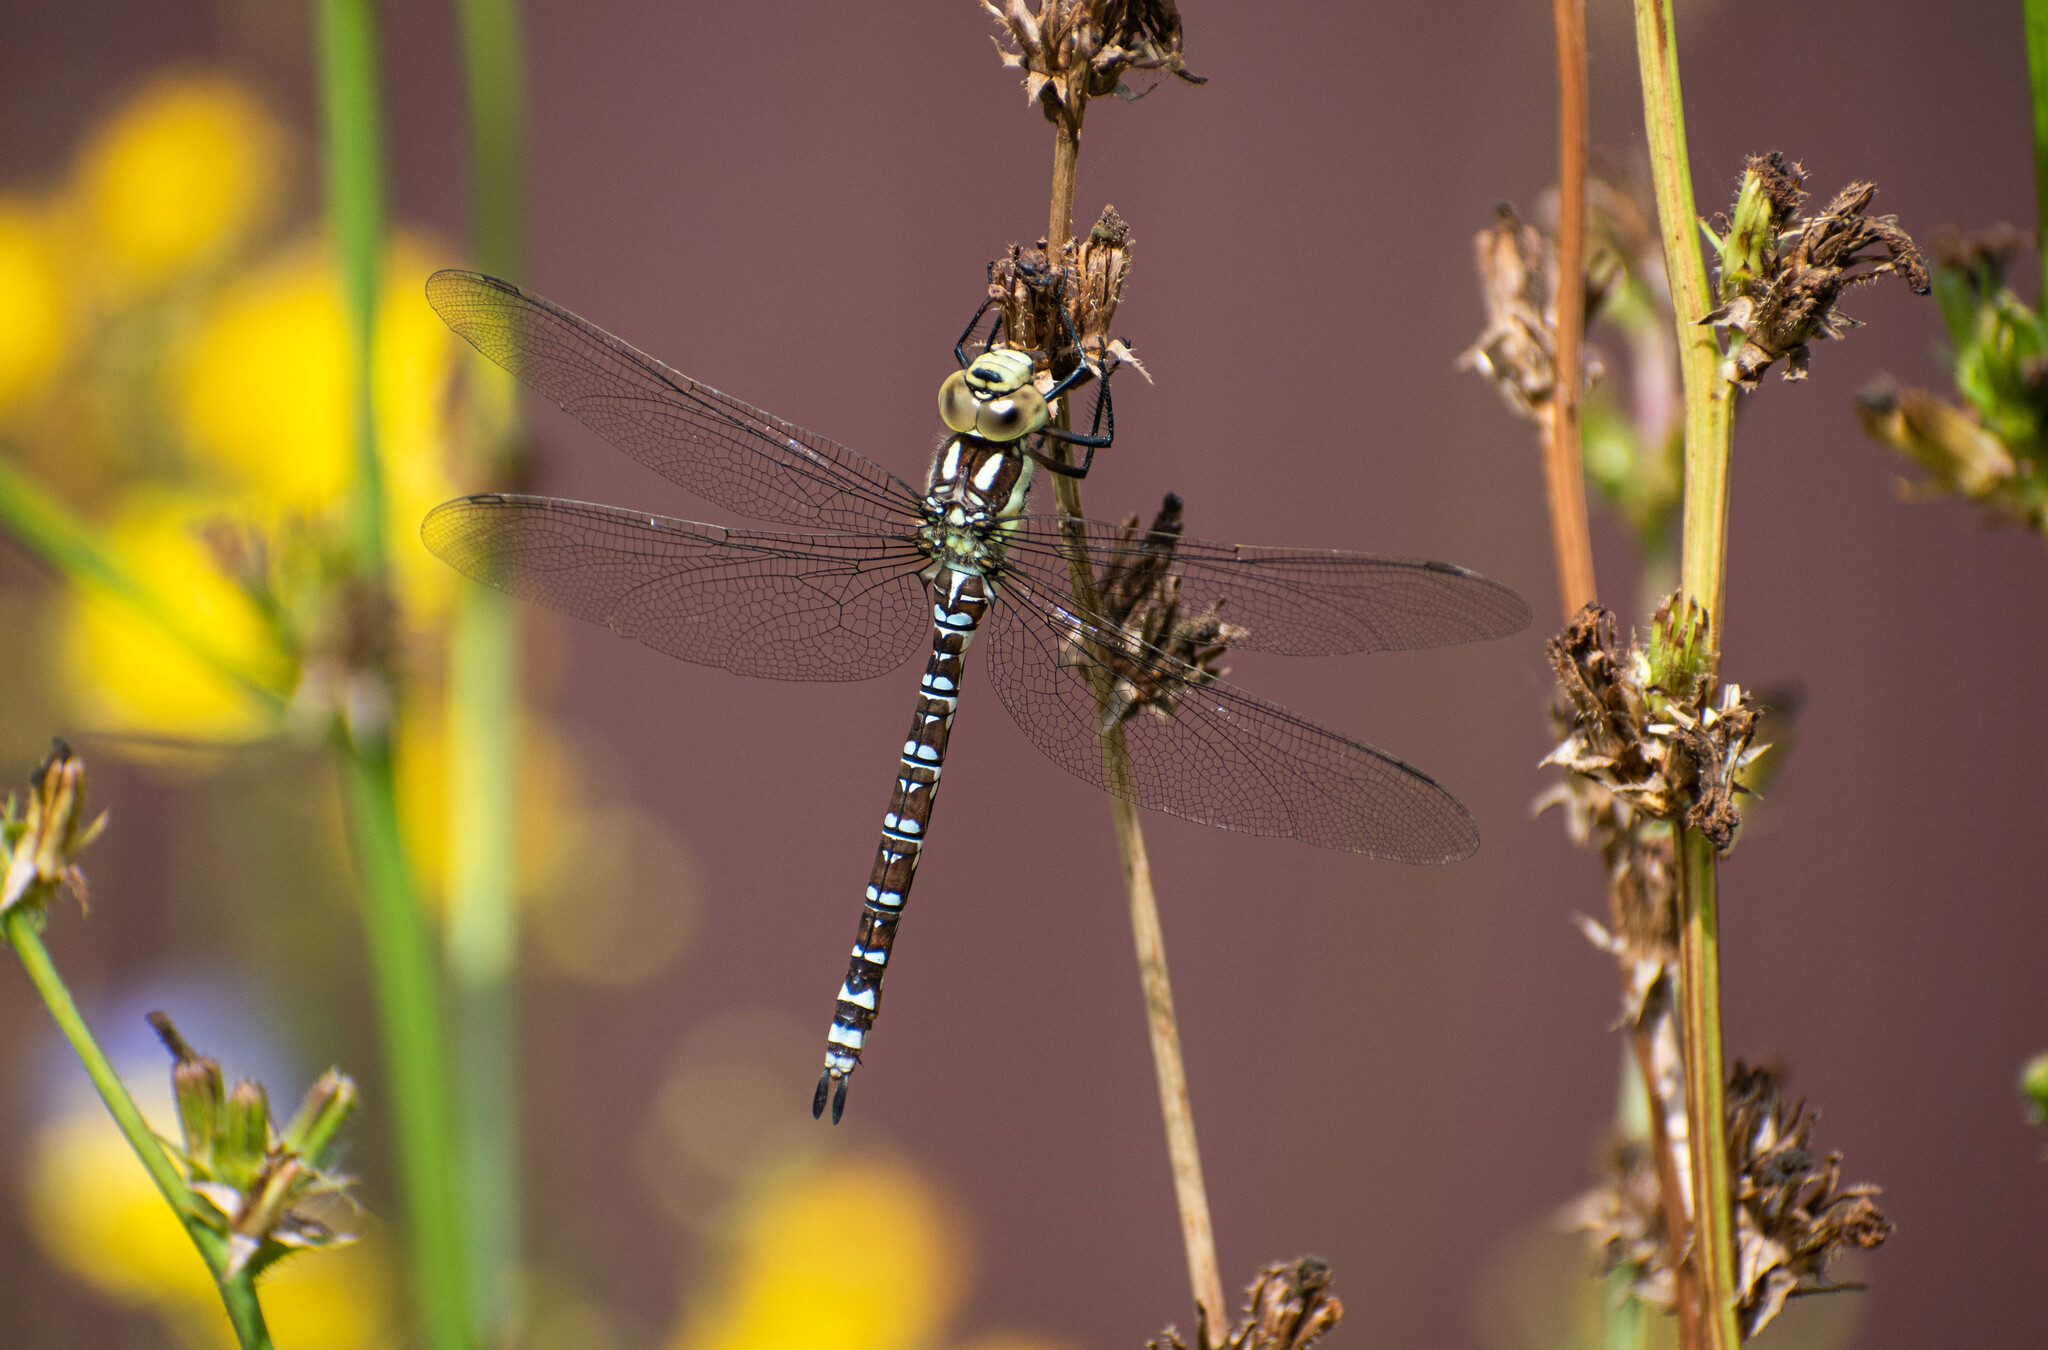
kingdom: Animalia
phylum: Arthropoda
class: Insecta
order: Odonata
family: Aeshnidae
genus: Aeshna
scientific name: Aeshna cyanea
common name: Southern hawker
